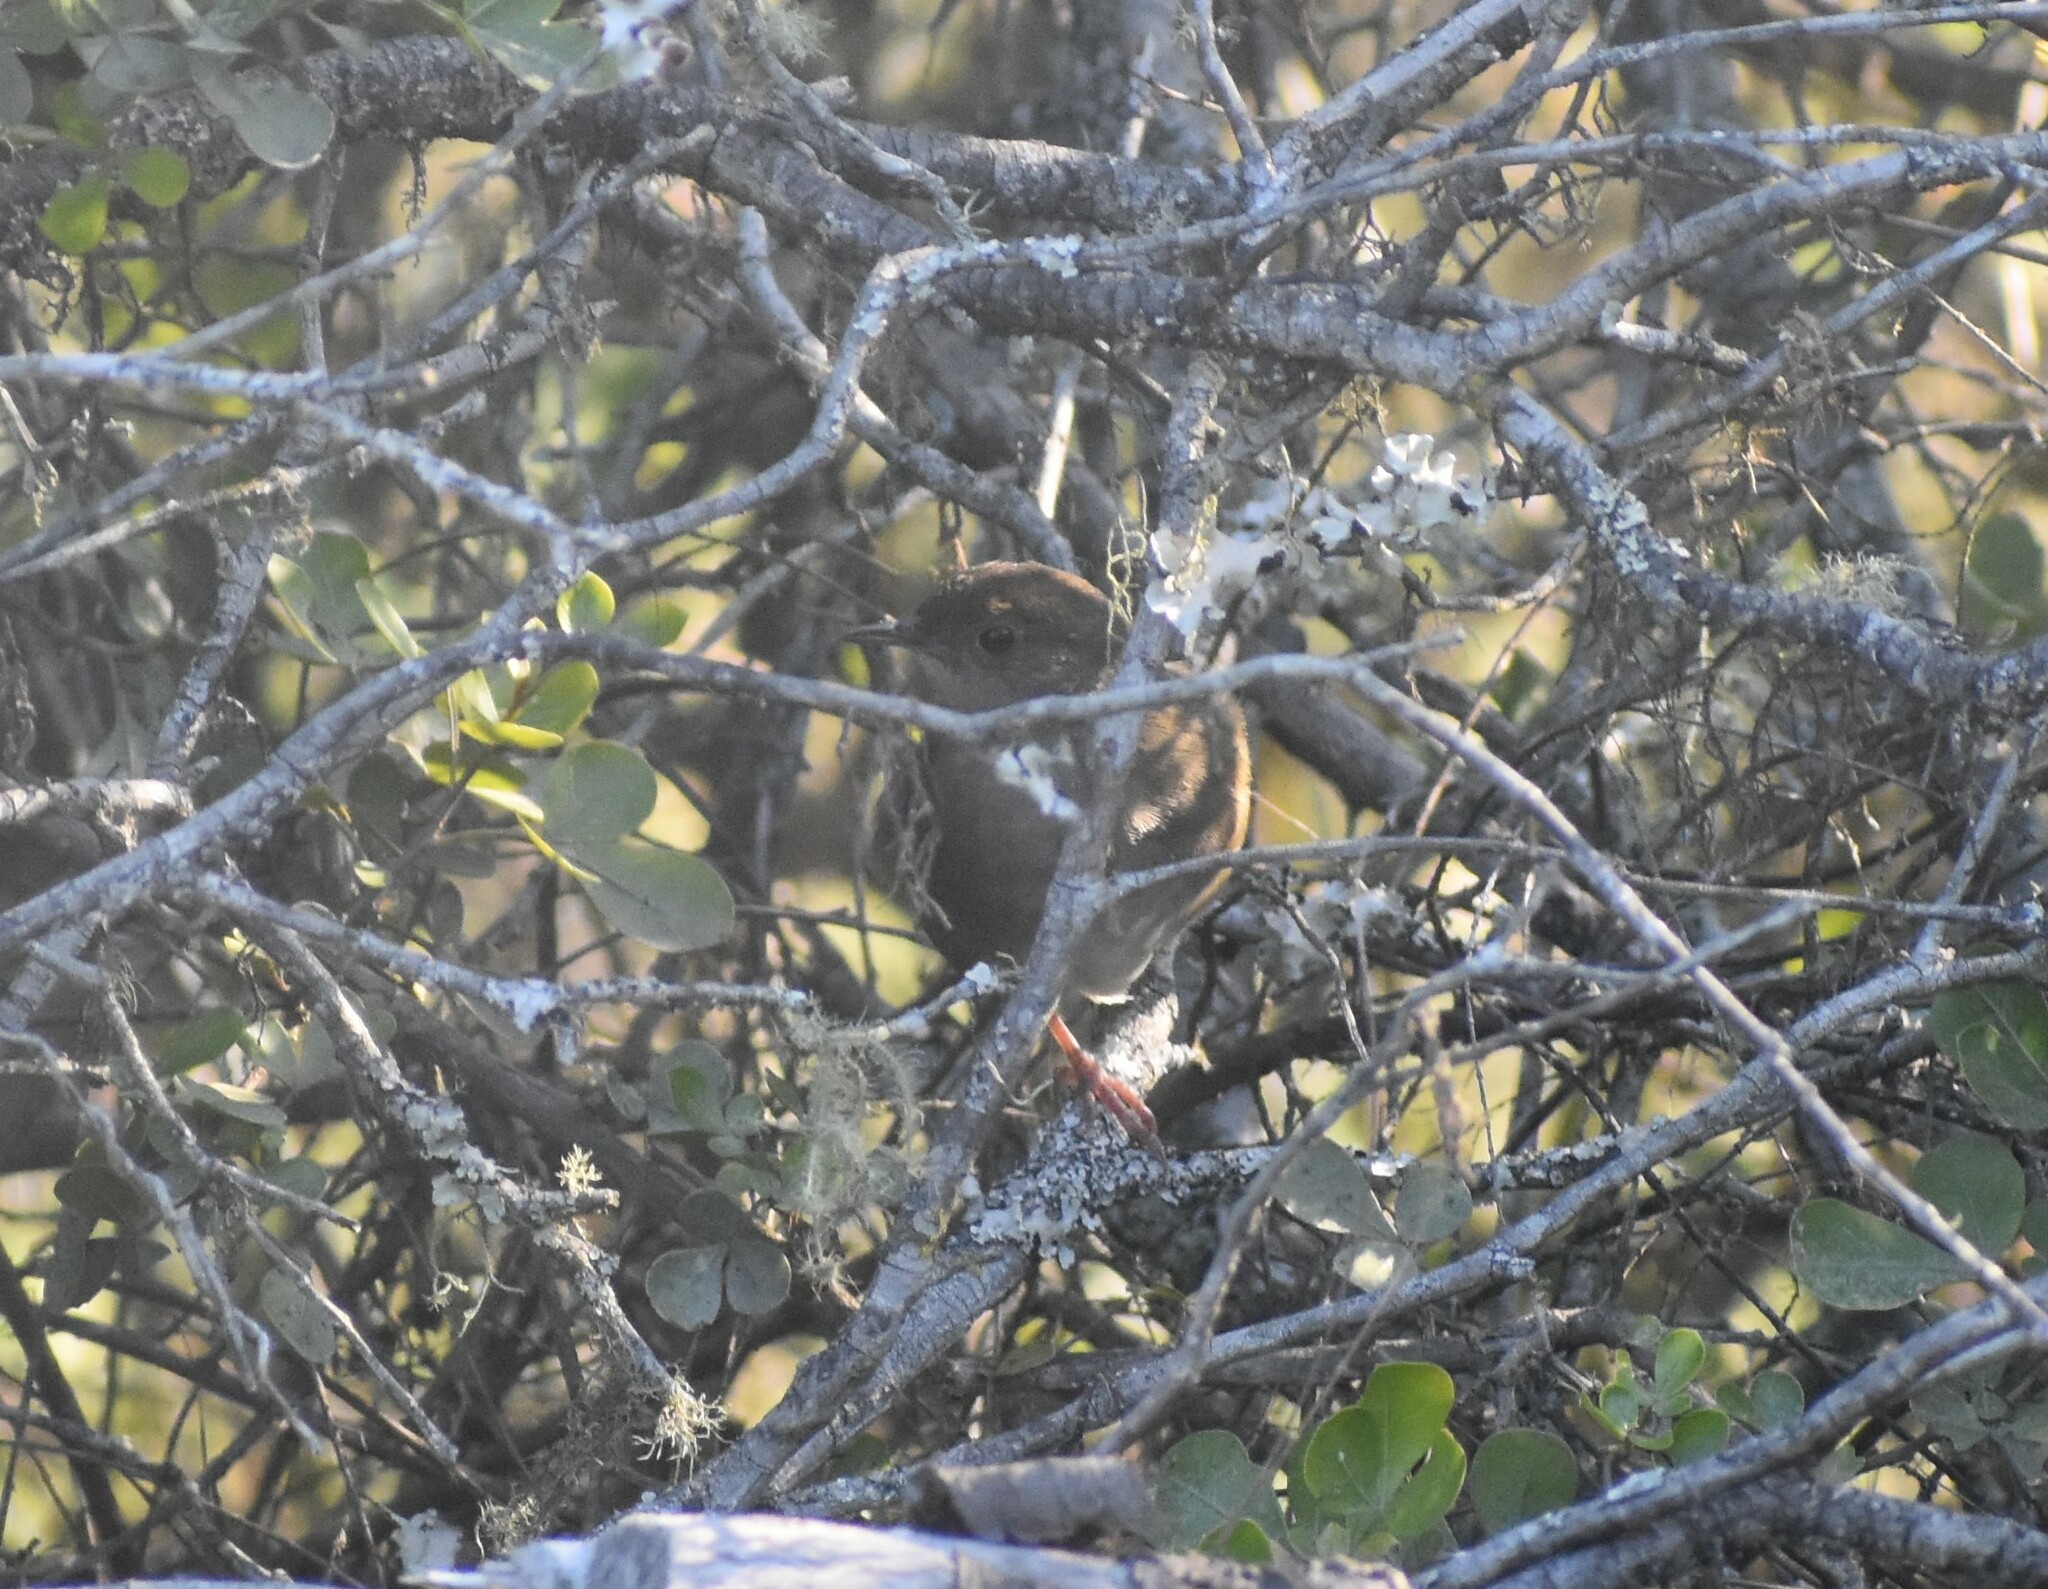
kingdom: Animalia
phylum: Chordata
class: Aves
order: Passeriformes
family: Locustellidae
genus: Bradypterus
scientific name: Bradypterus sylvaticus
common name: Knysna warbler
